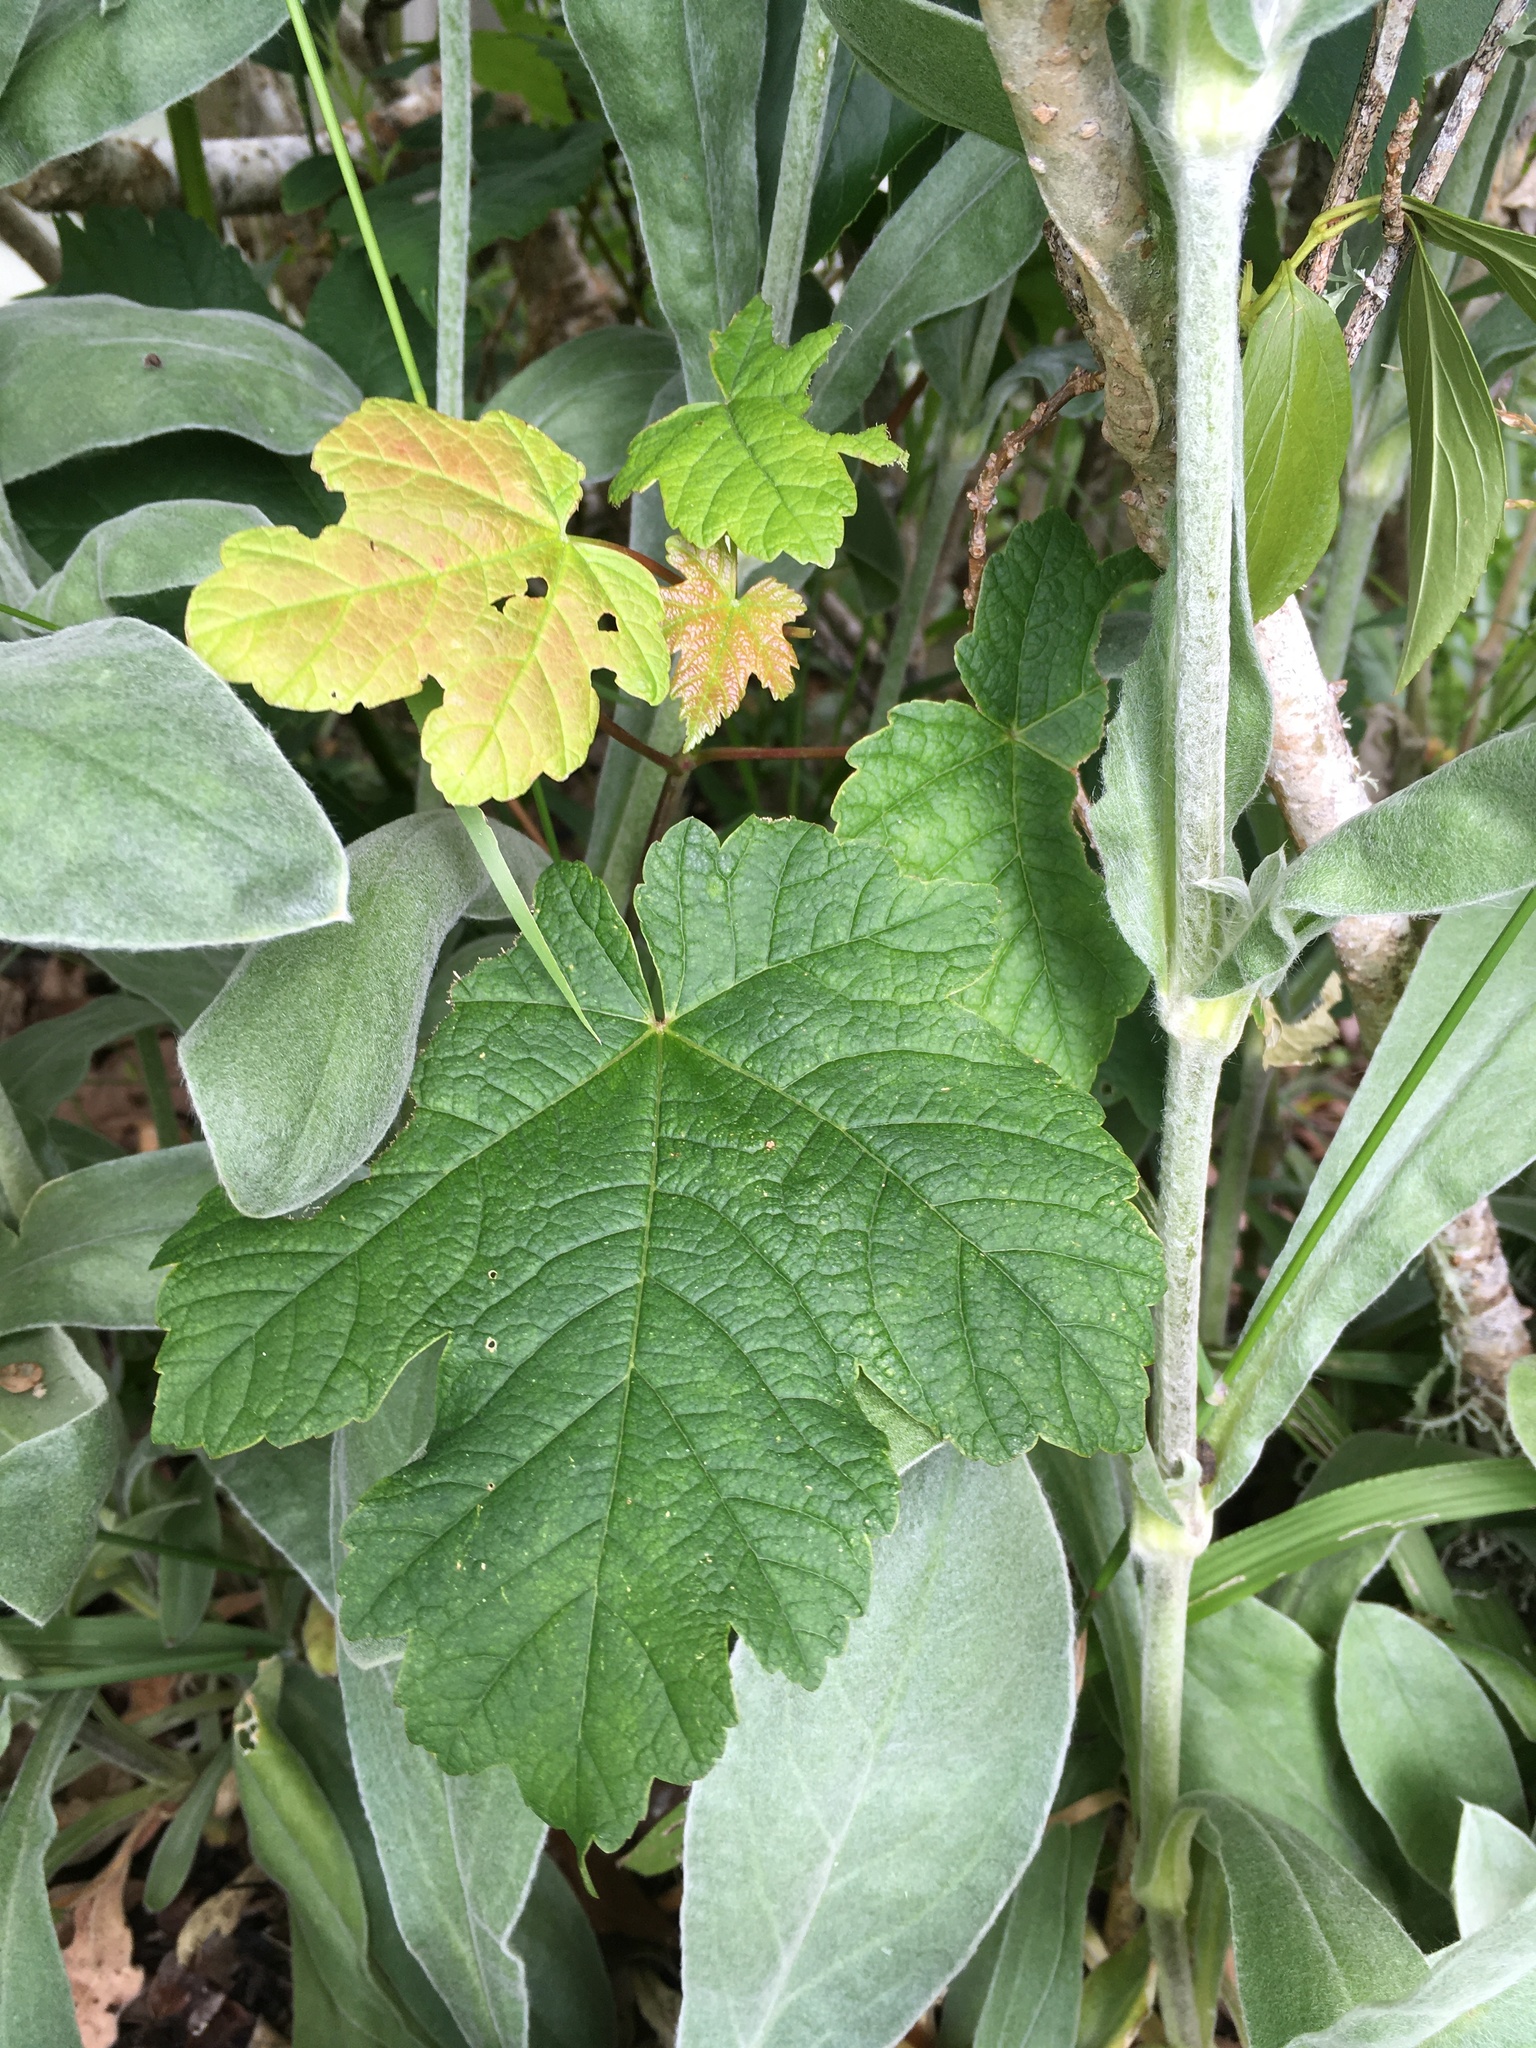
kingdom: Plantae
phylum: Tracheophyta
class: Magnoliopsida
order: Sapindales
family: Sapindaceae
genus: Acer
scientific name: Acer pseudoplatanus
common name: Sycamore
